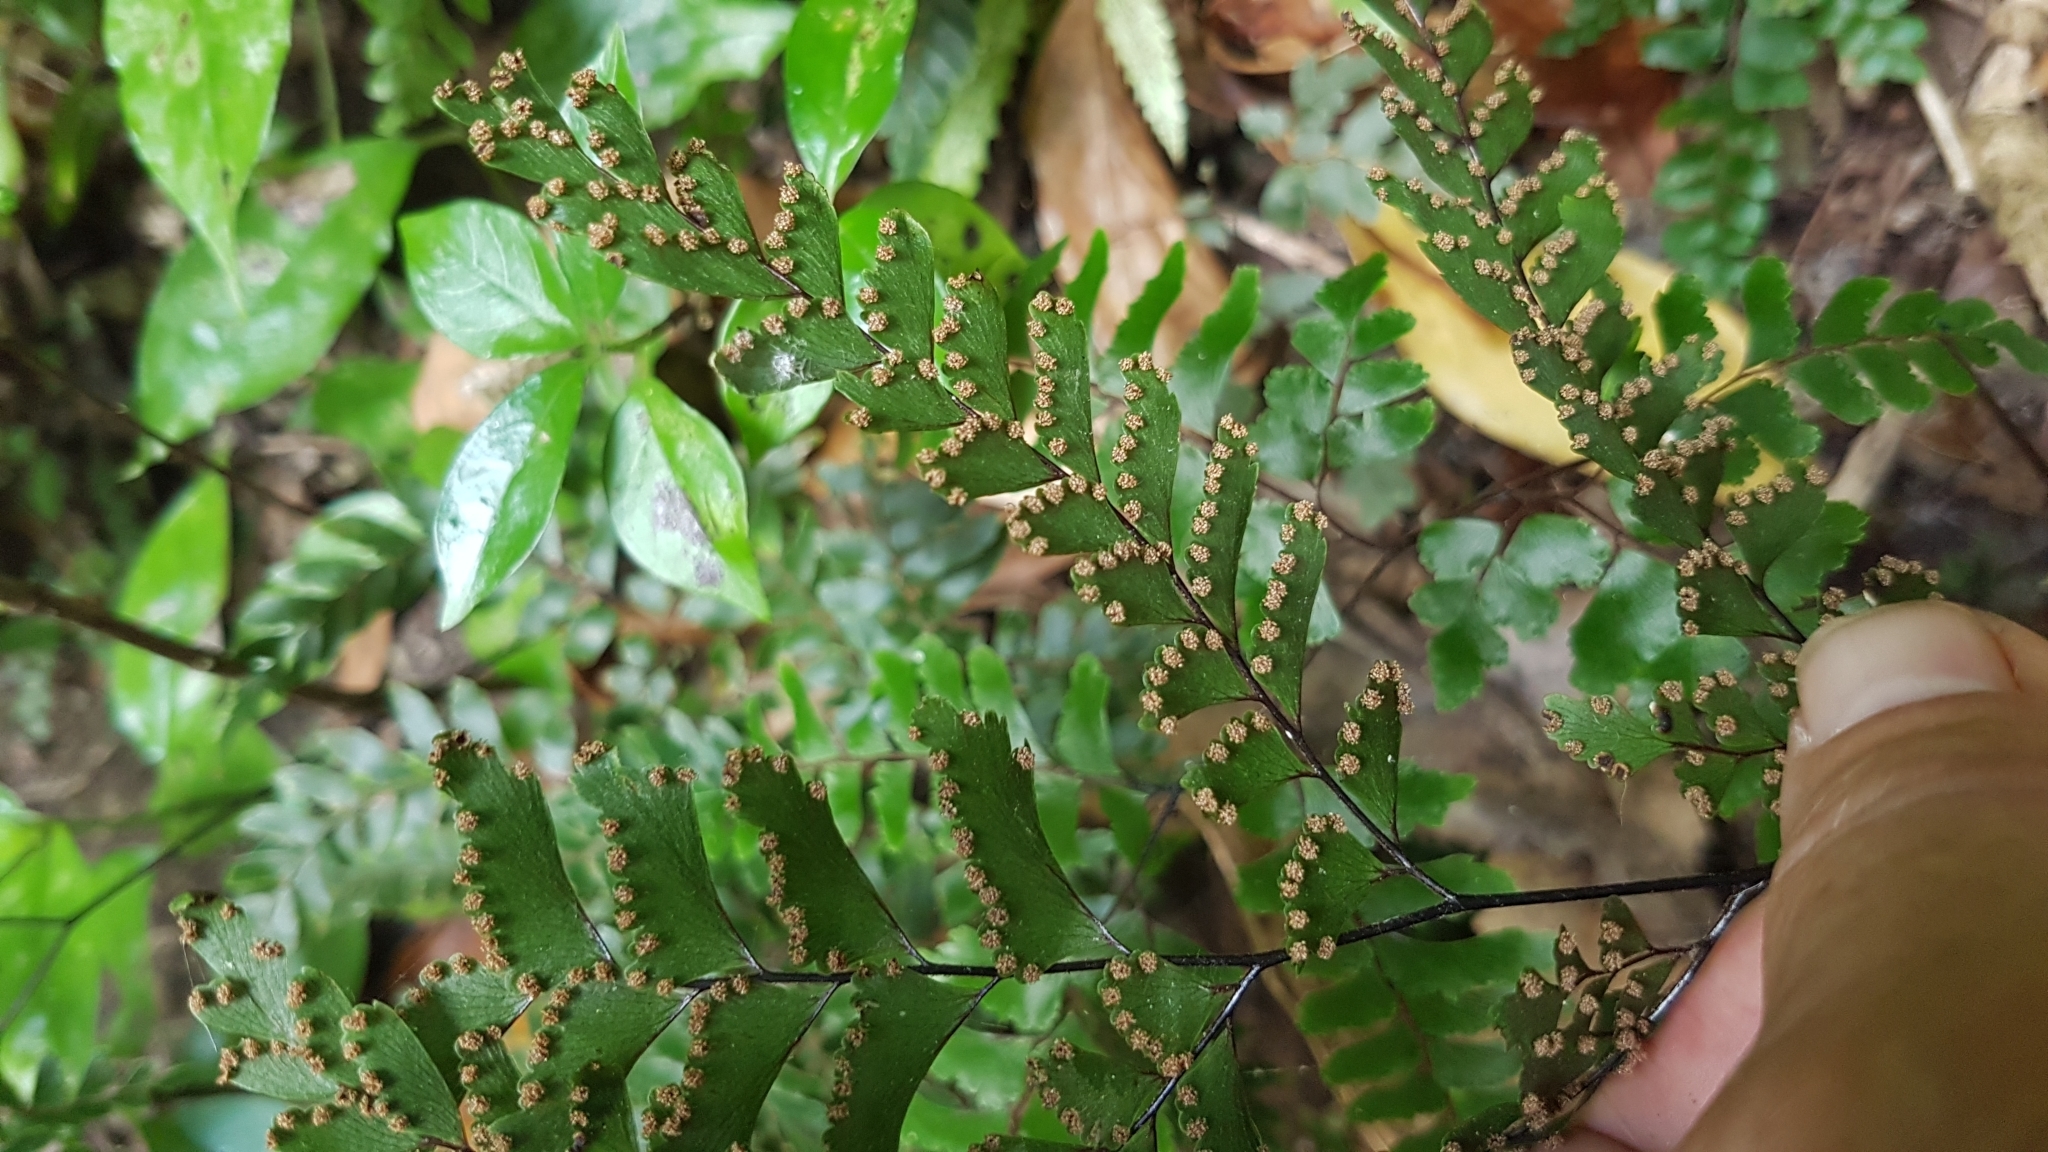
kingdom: Plantae
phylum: Tracheophyta
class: Polypodiopsida
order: Polypodiales
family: Pteridaceae
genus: Adiantum
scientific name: Adiantum fulvum
